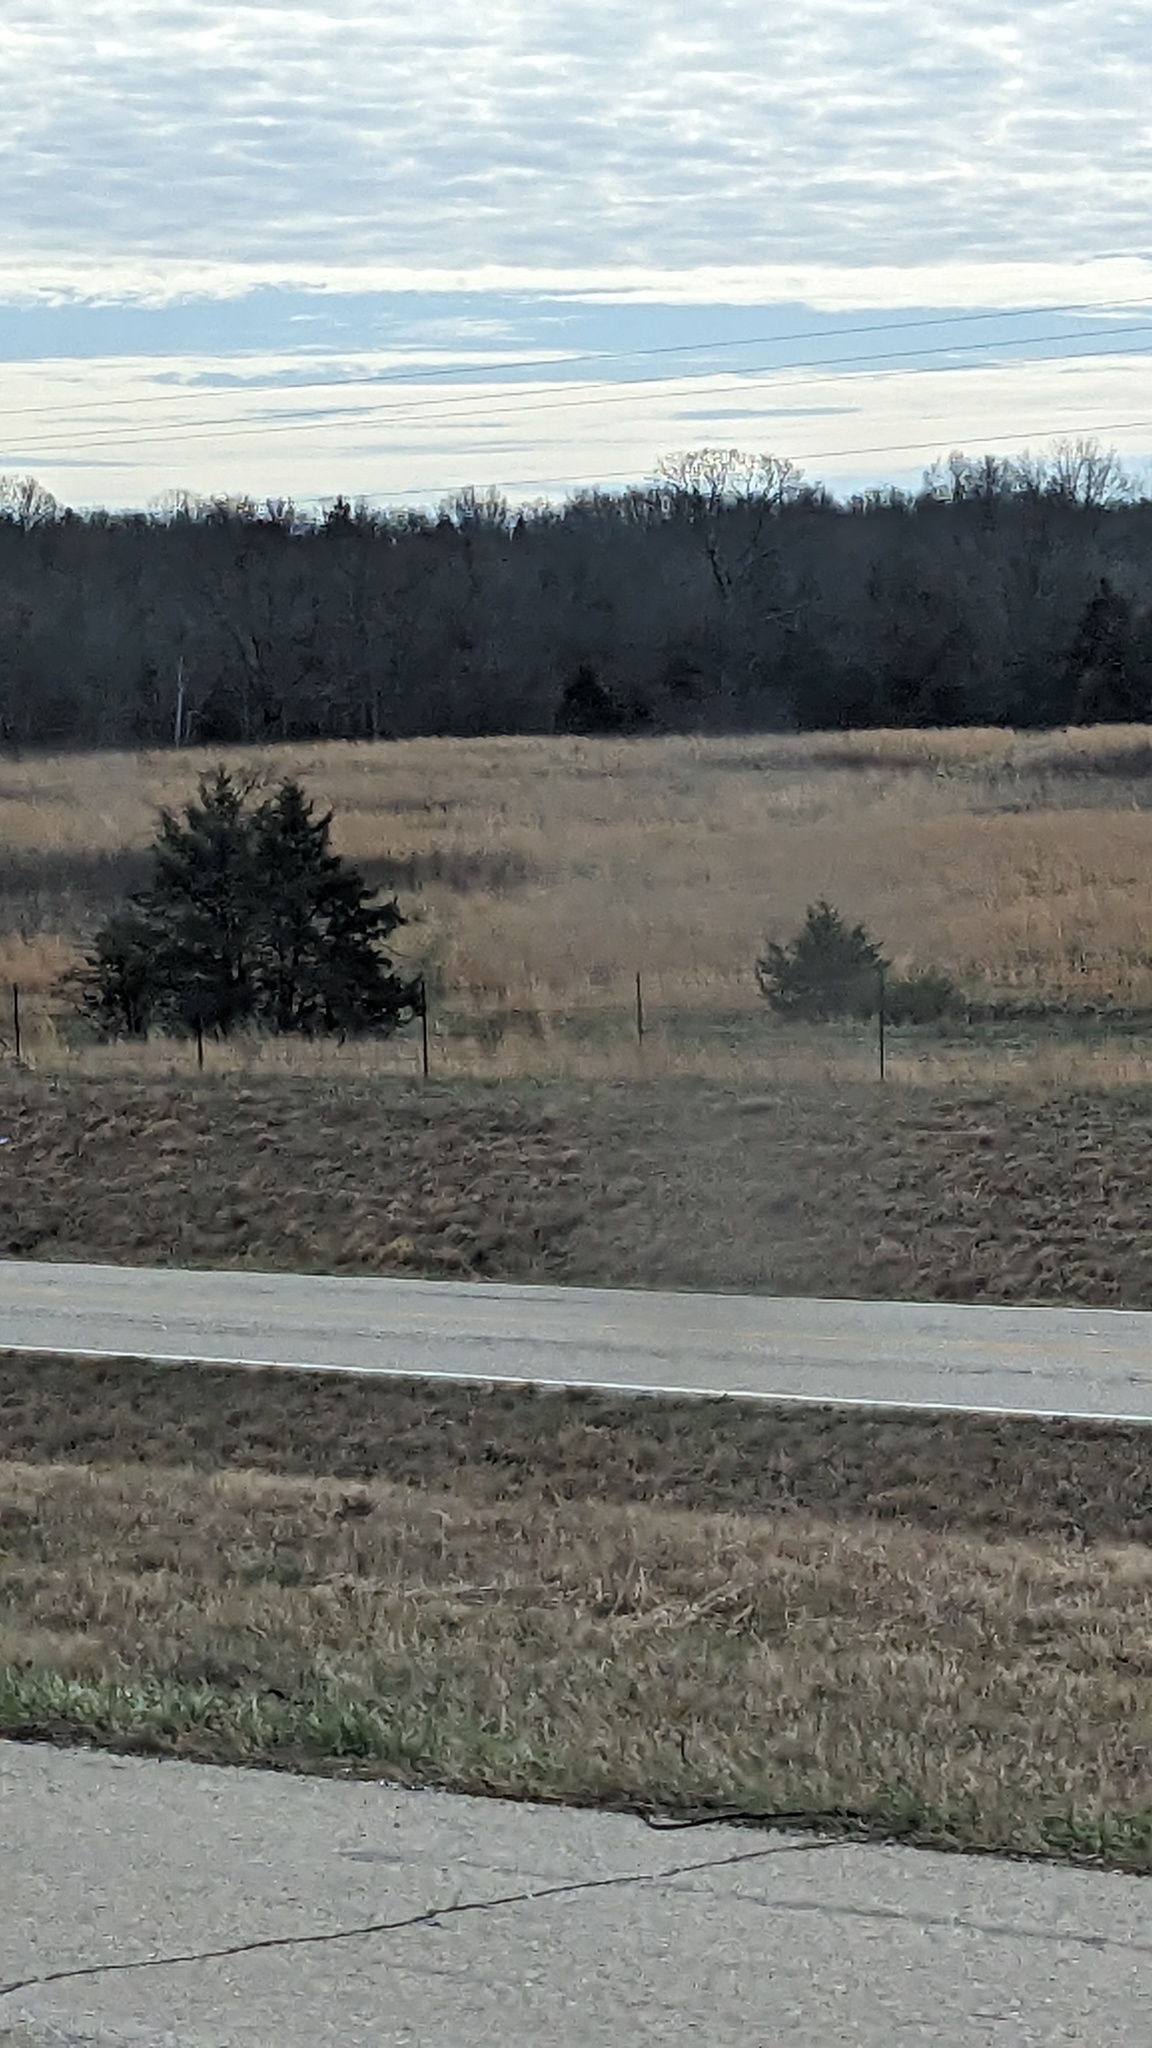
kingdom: Plantae
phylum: Tracheophyta
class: Pinopsida
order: Pinales
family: Cupressaceae
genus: Juniperus
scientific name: Juniperus virginiana
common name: Red juniper
